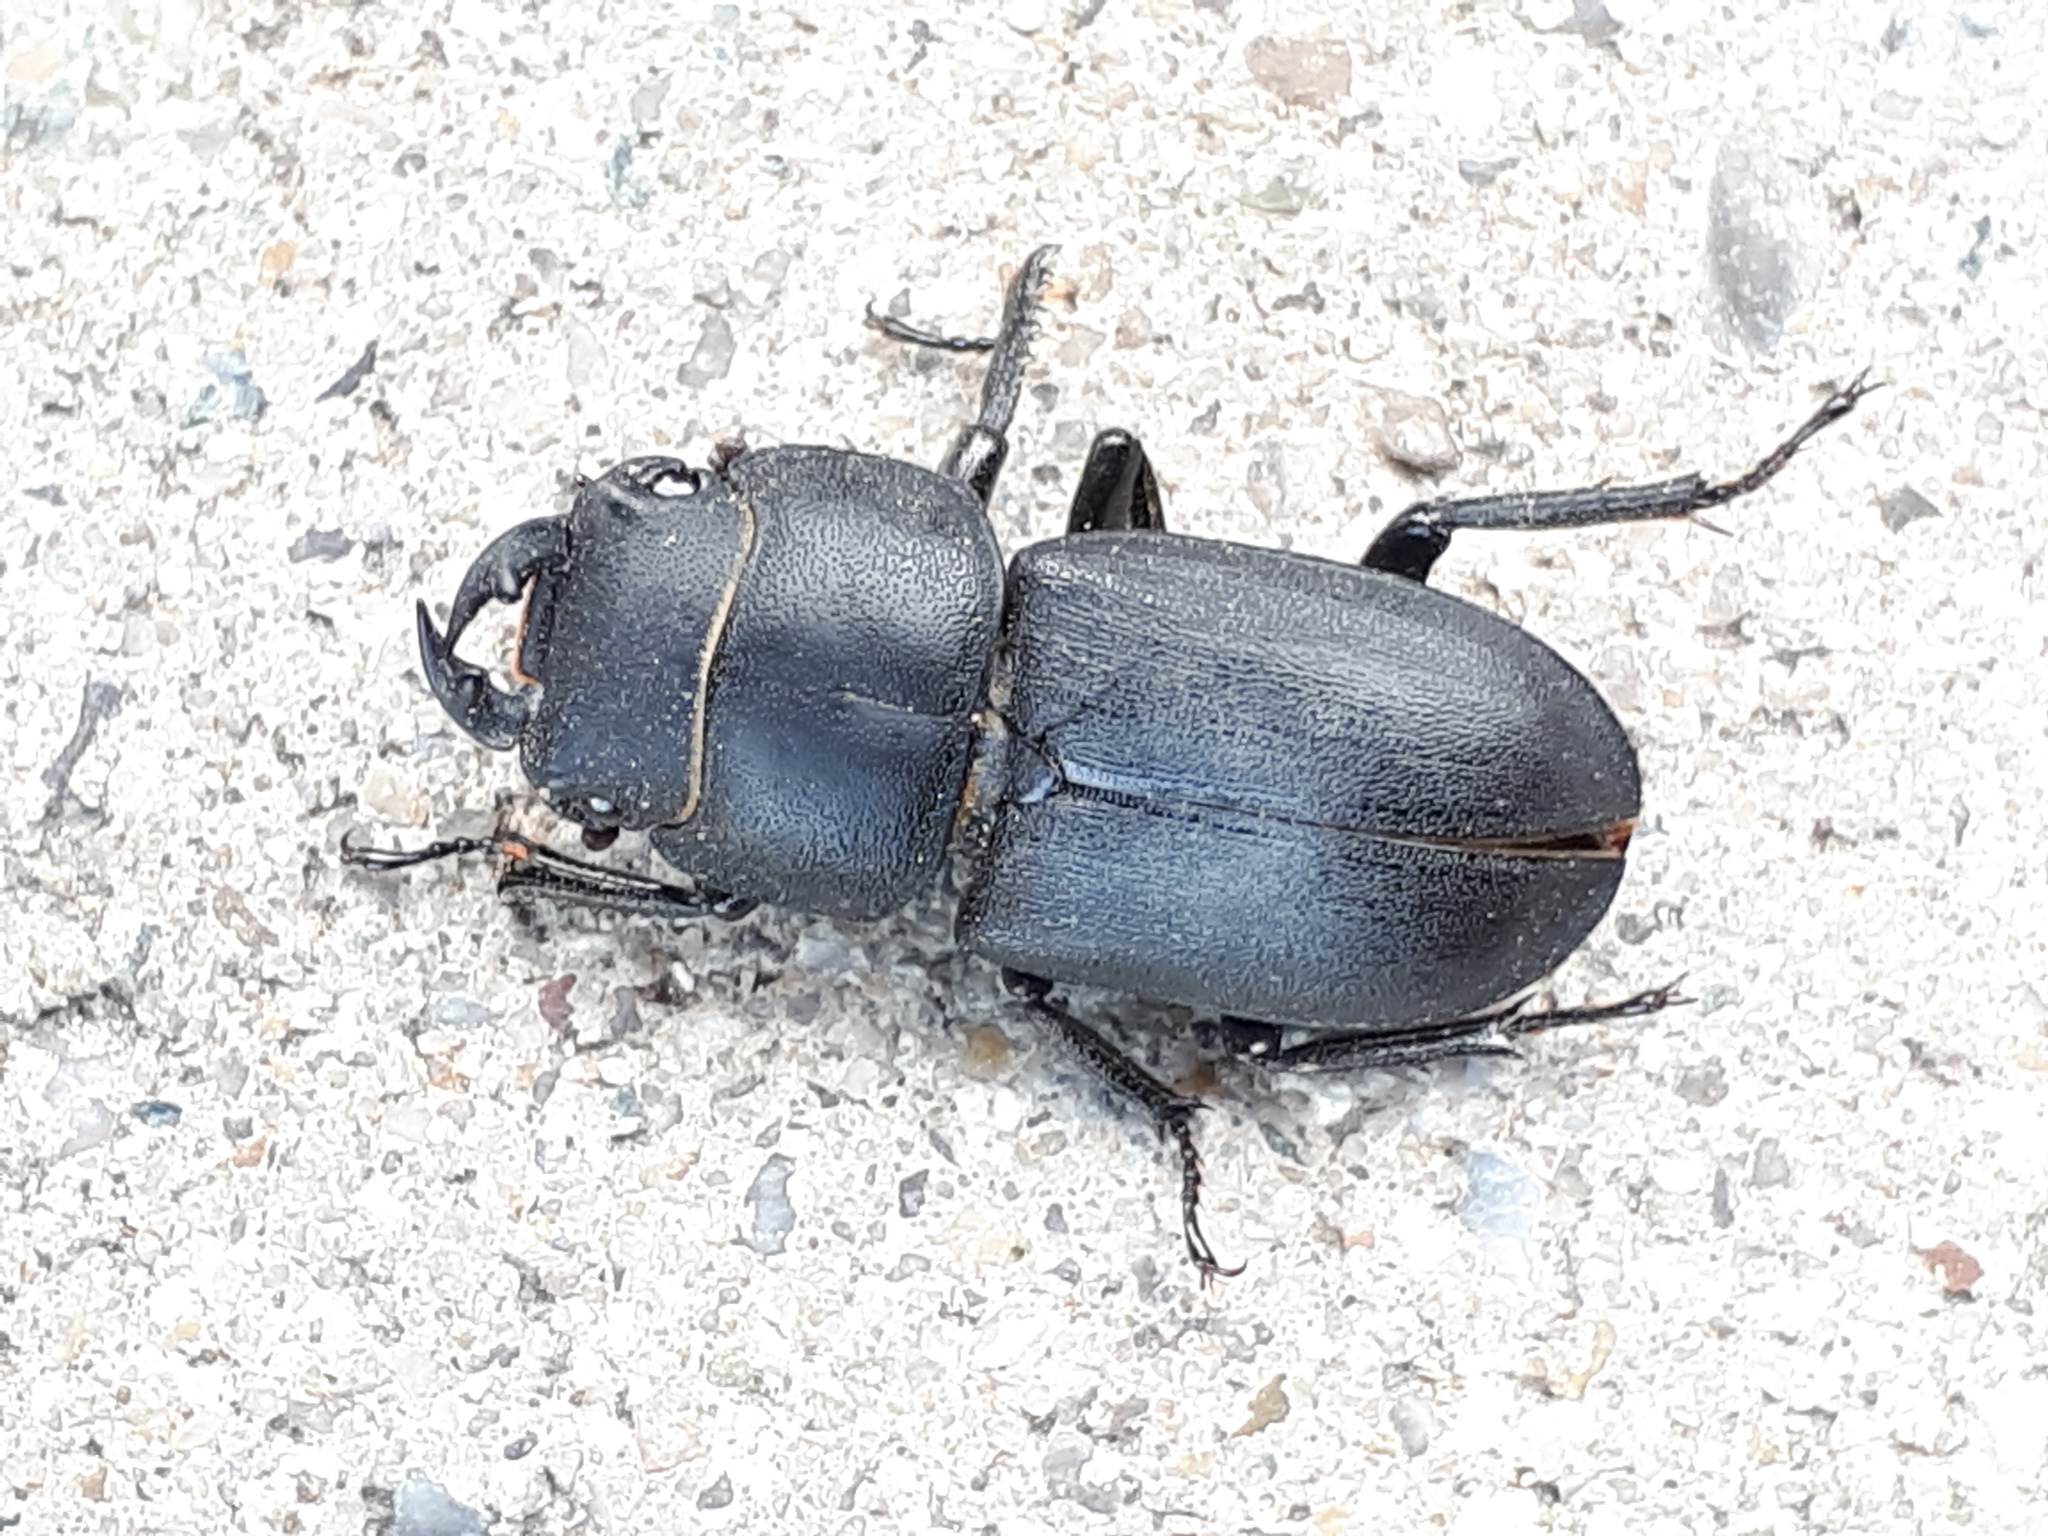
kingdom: Animalia
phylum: Arthropoda
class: Insecta
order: Coleoptera
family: Lucanidae
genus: Dorcus
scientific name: Dorcus parallelipipedus
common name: Lesser stag beetle
